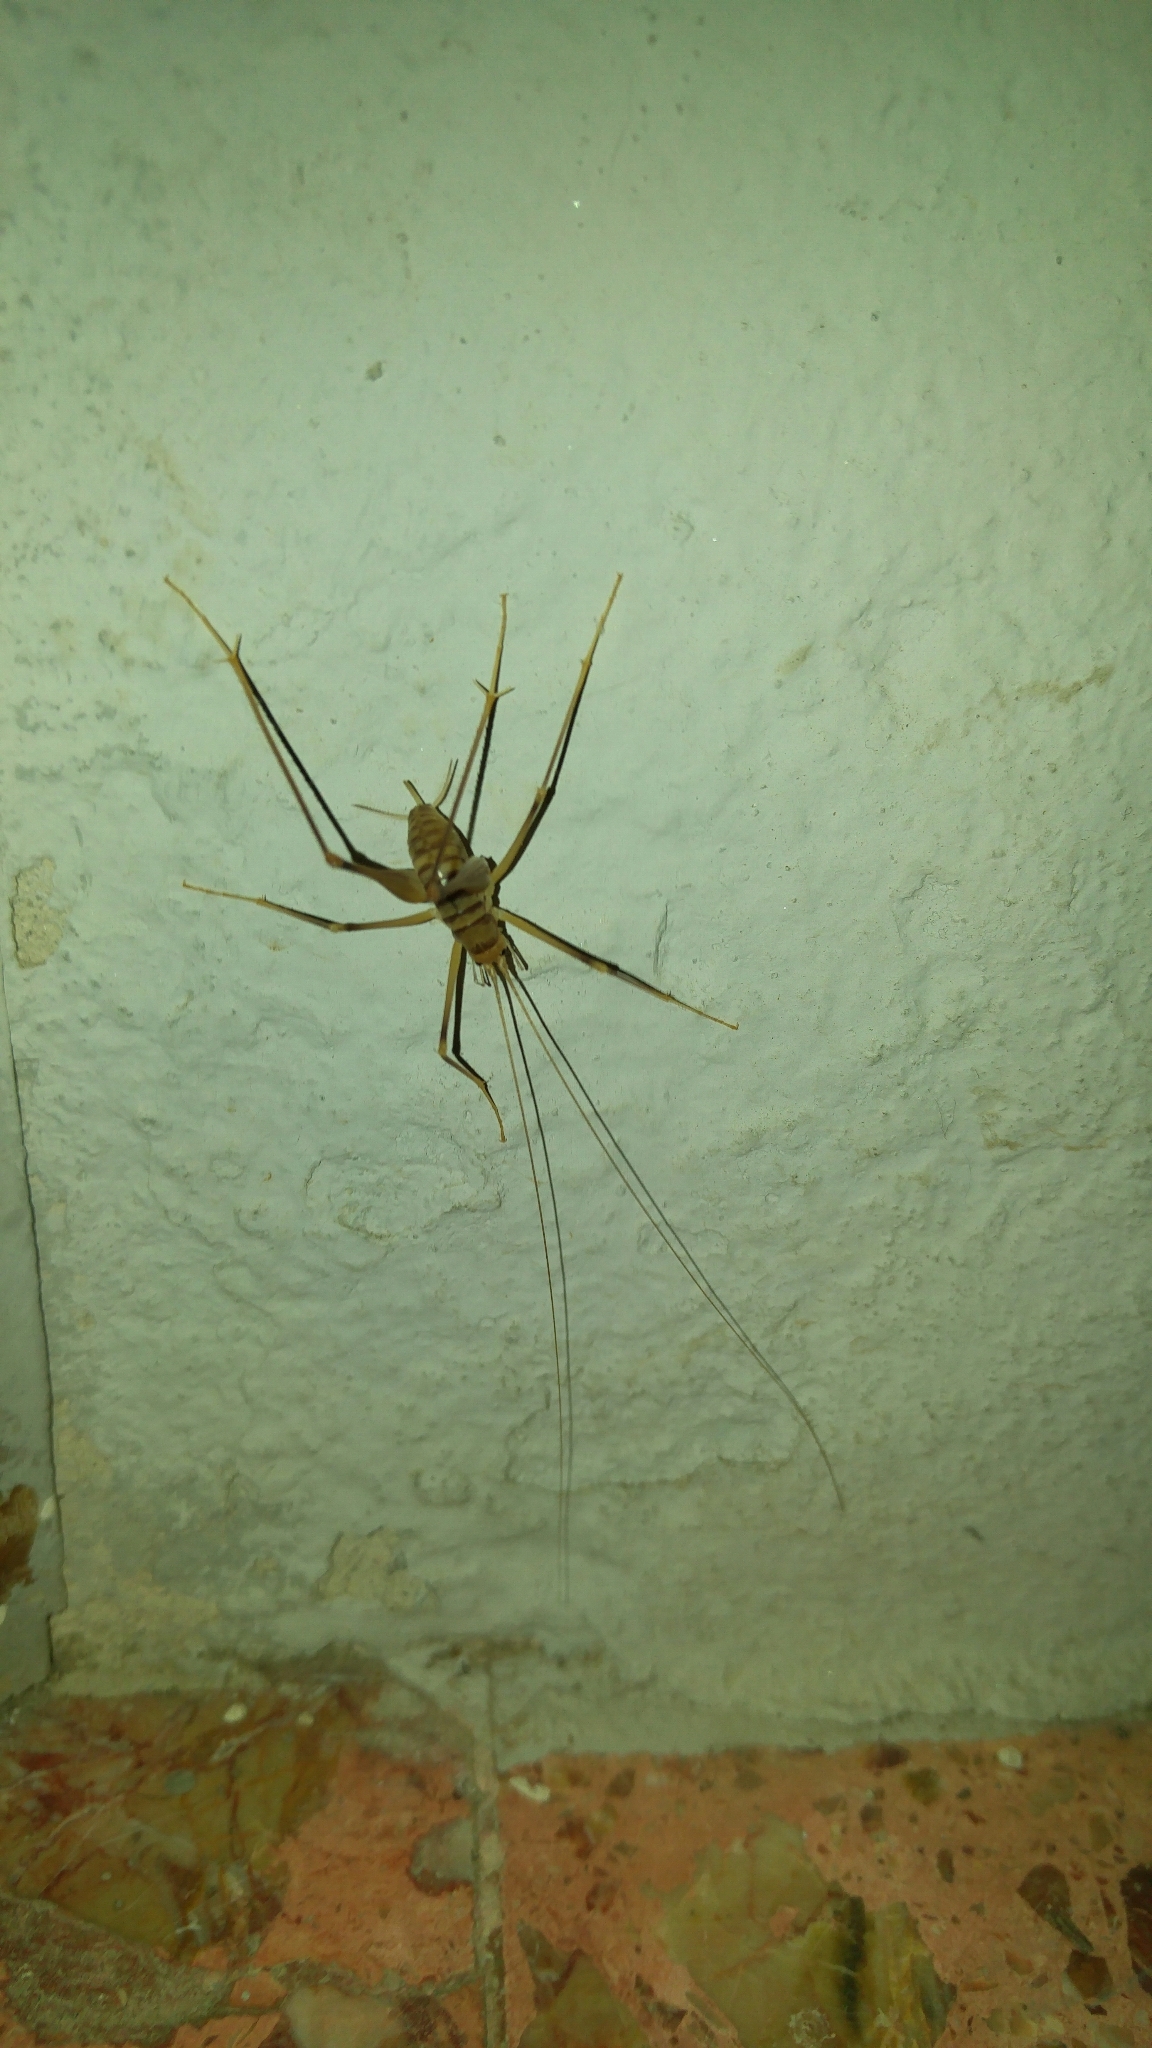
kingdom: Animalia
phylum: Arthropoda
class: Insecta
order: Orthoptera
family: Rhaphidophoridae
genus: Dolichopoda
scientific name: Dolichopoda laetitiae
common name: Laetitia's cave cricket
